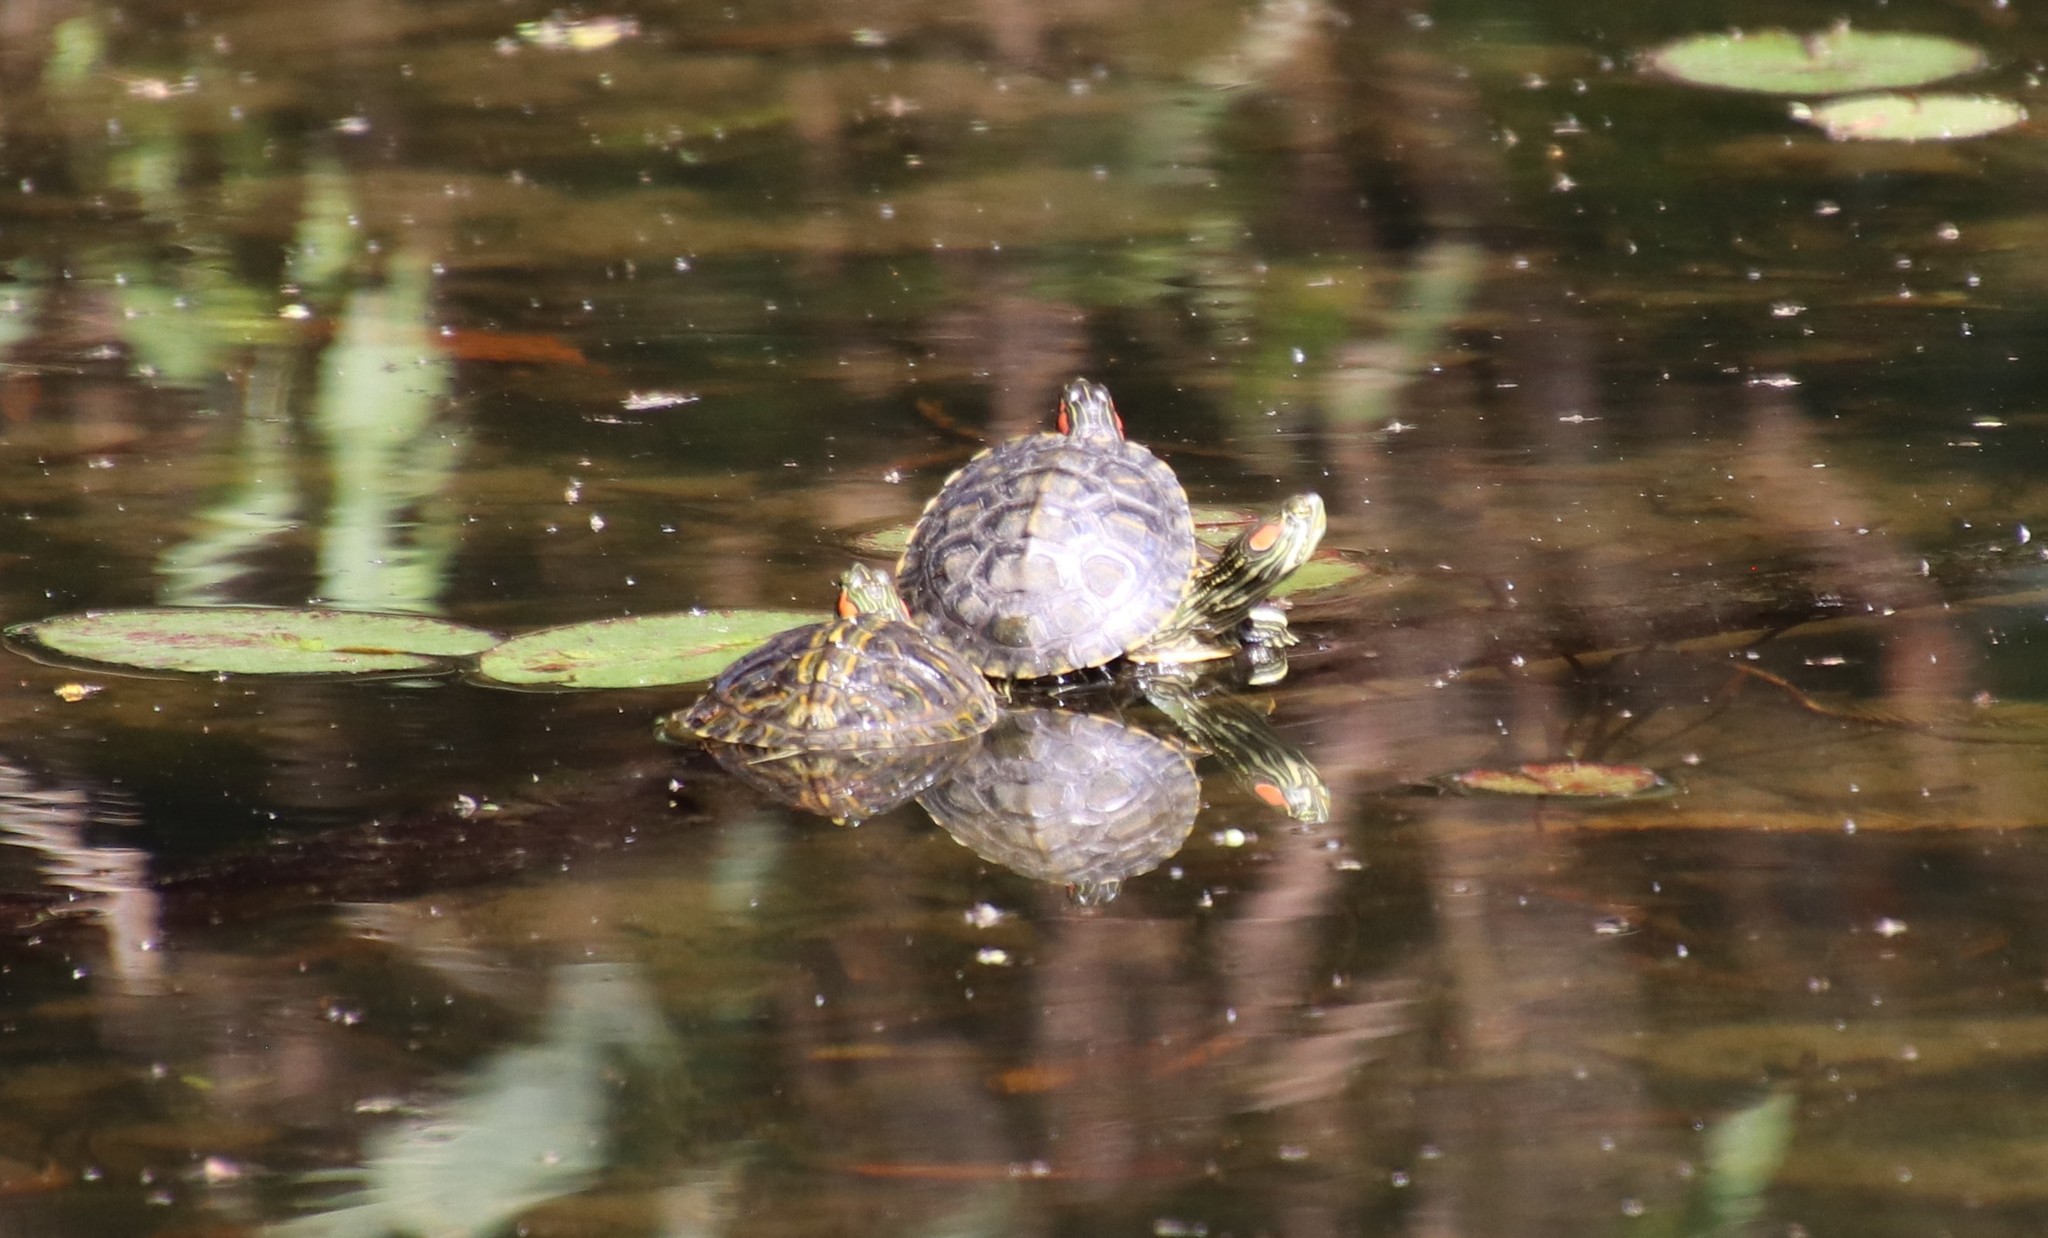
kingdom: Animalia
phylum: Chordata
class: Testudines
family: Emydidae
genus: Trachemys
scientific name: Trachemys scripta
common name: Slider
